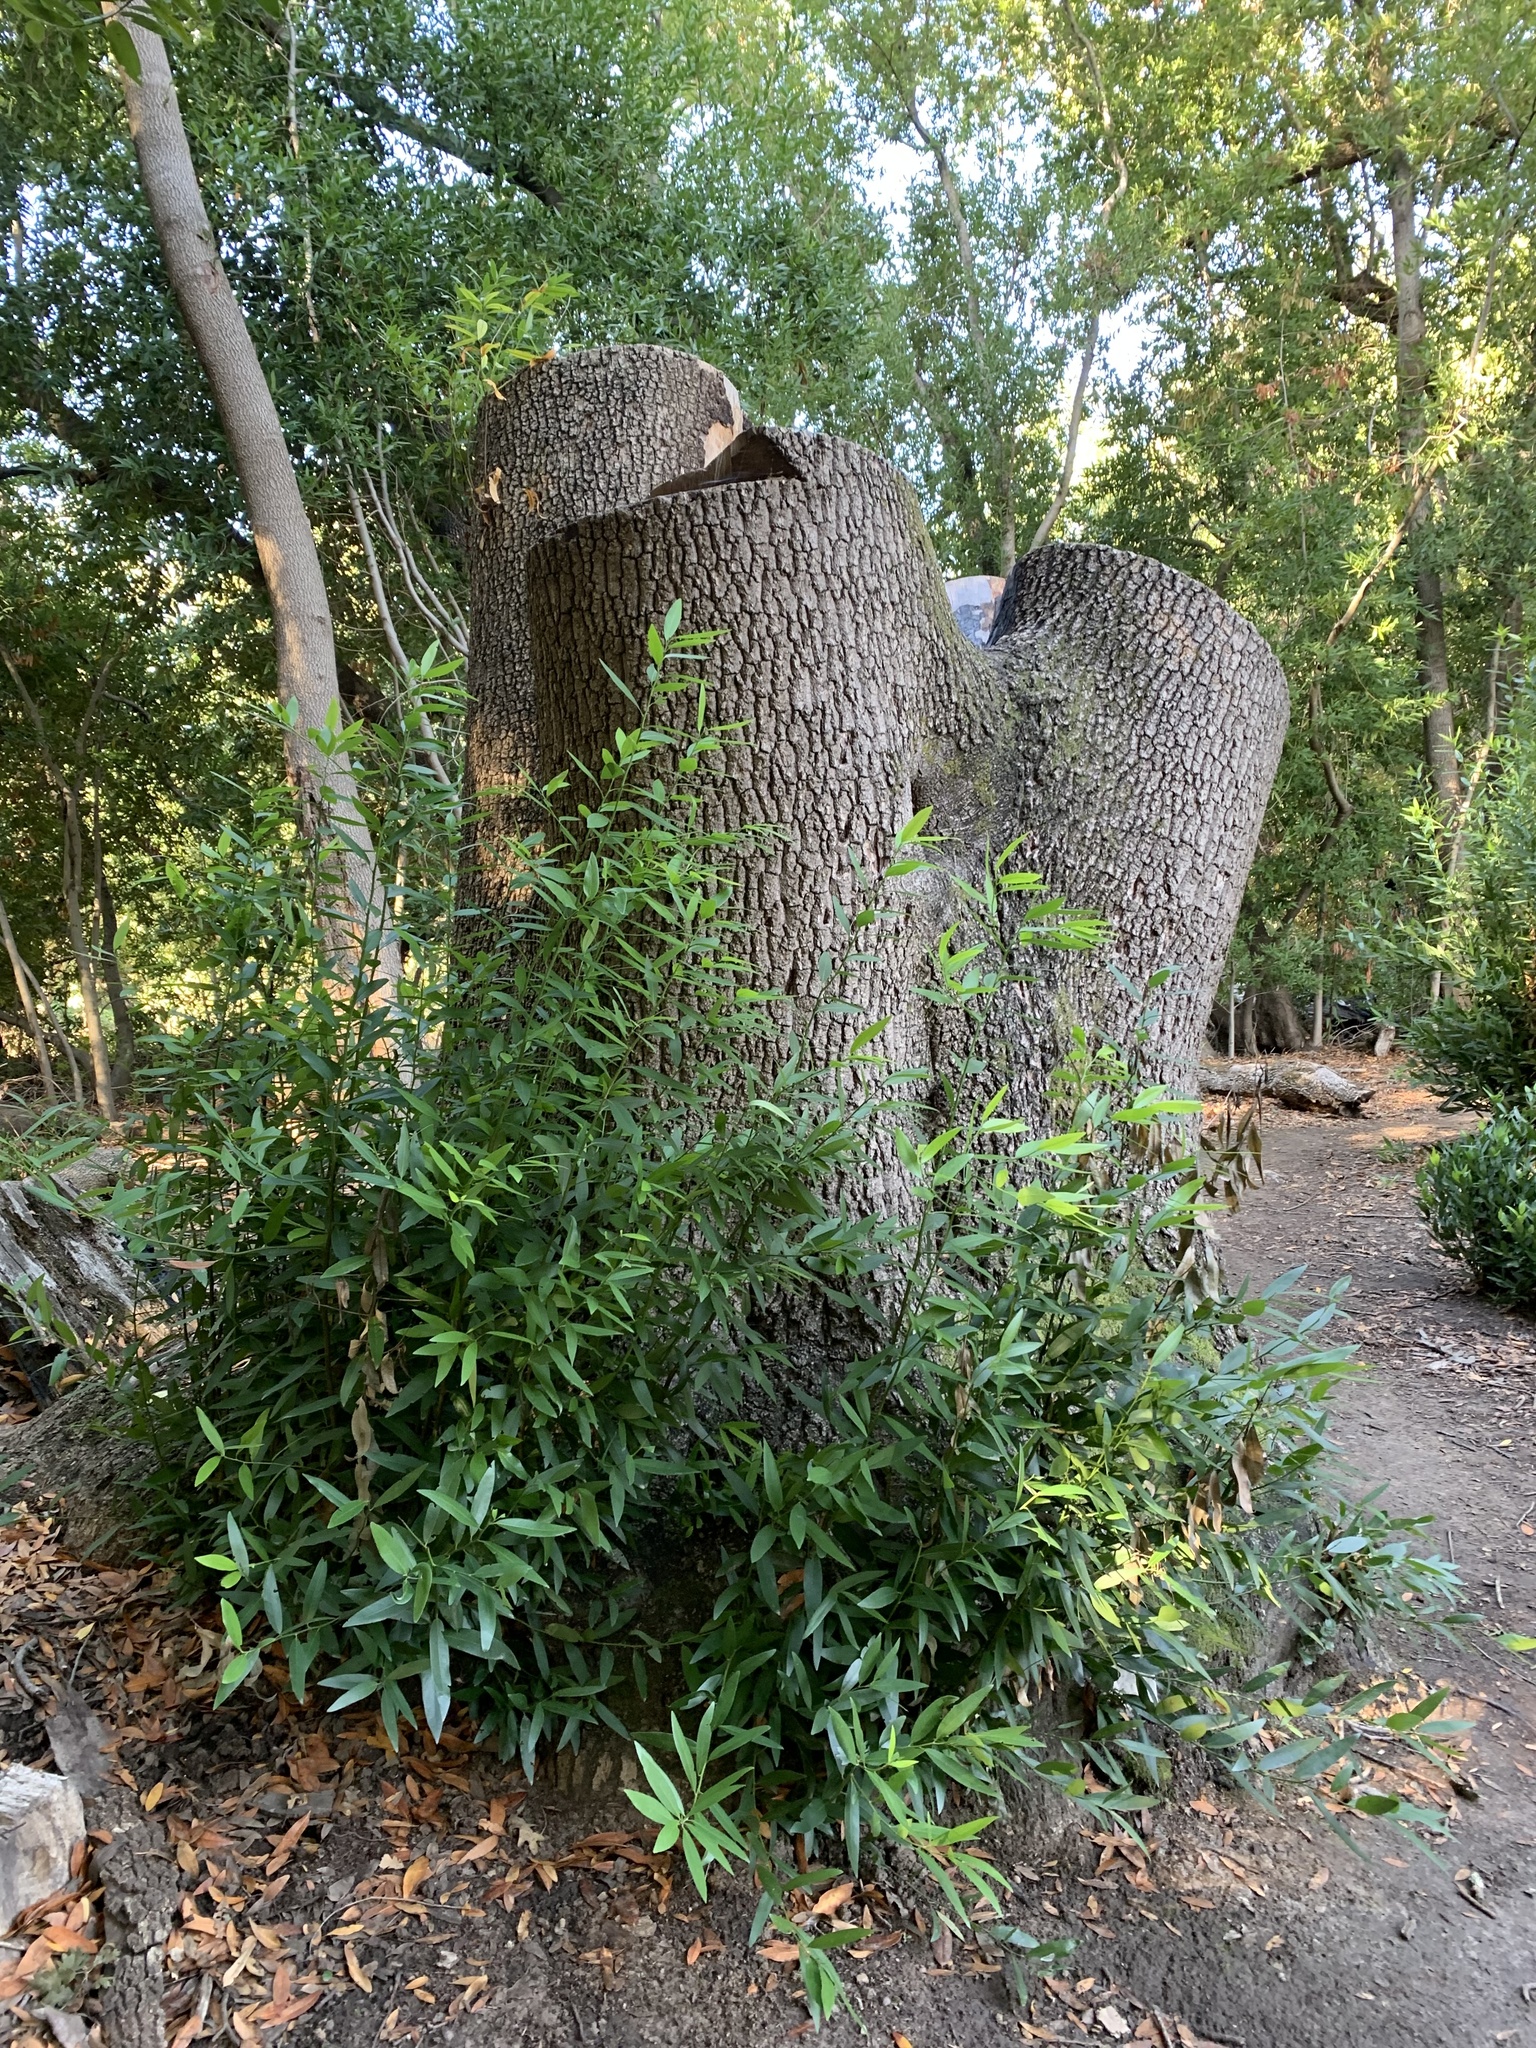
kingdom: Plantae
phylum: Tracheophyta
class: Magnoliopsida
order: Laurales
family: Lauraceae
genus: Umbellularia
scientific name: Umbellularia californica
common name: California bay
